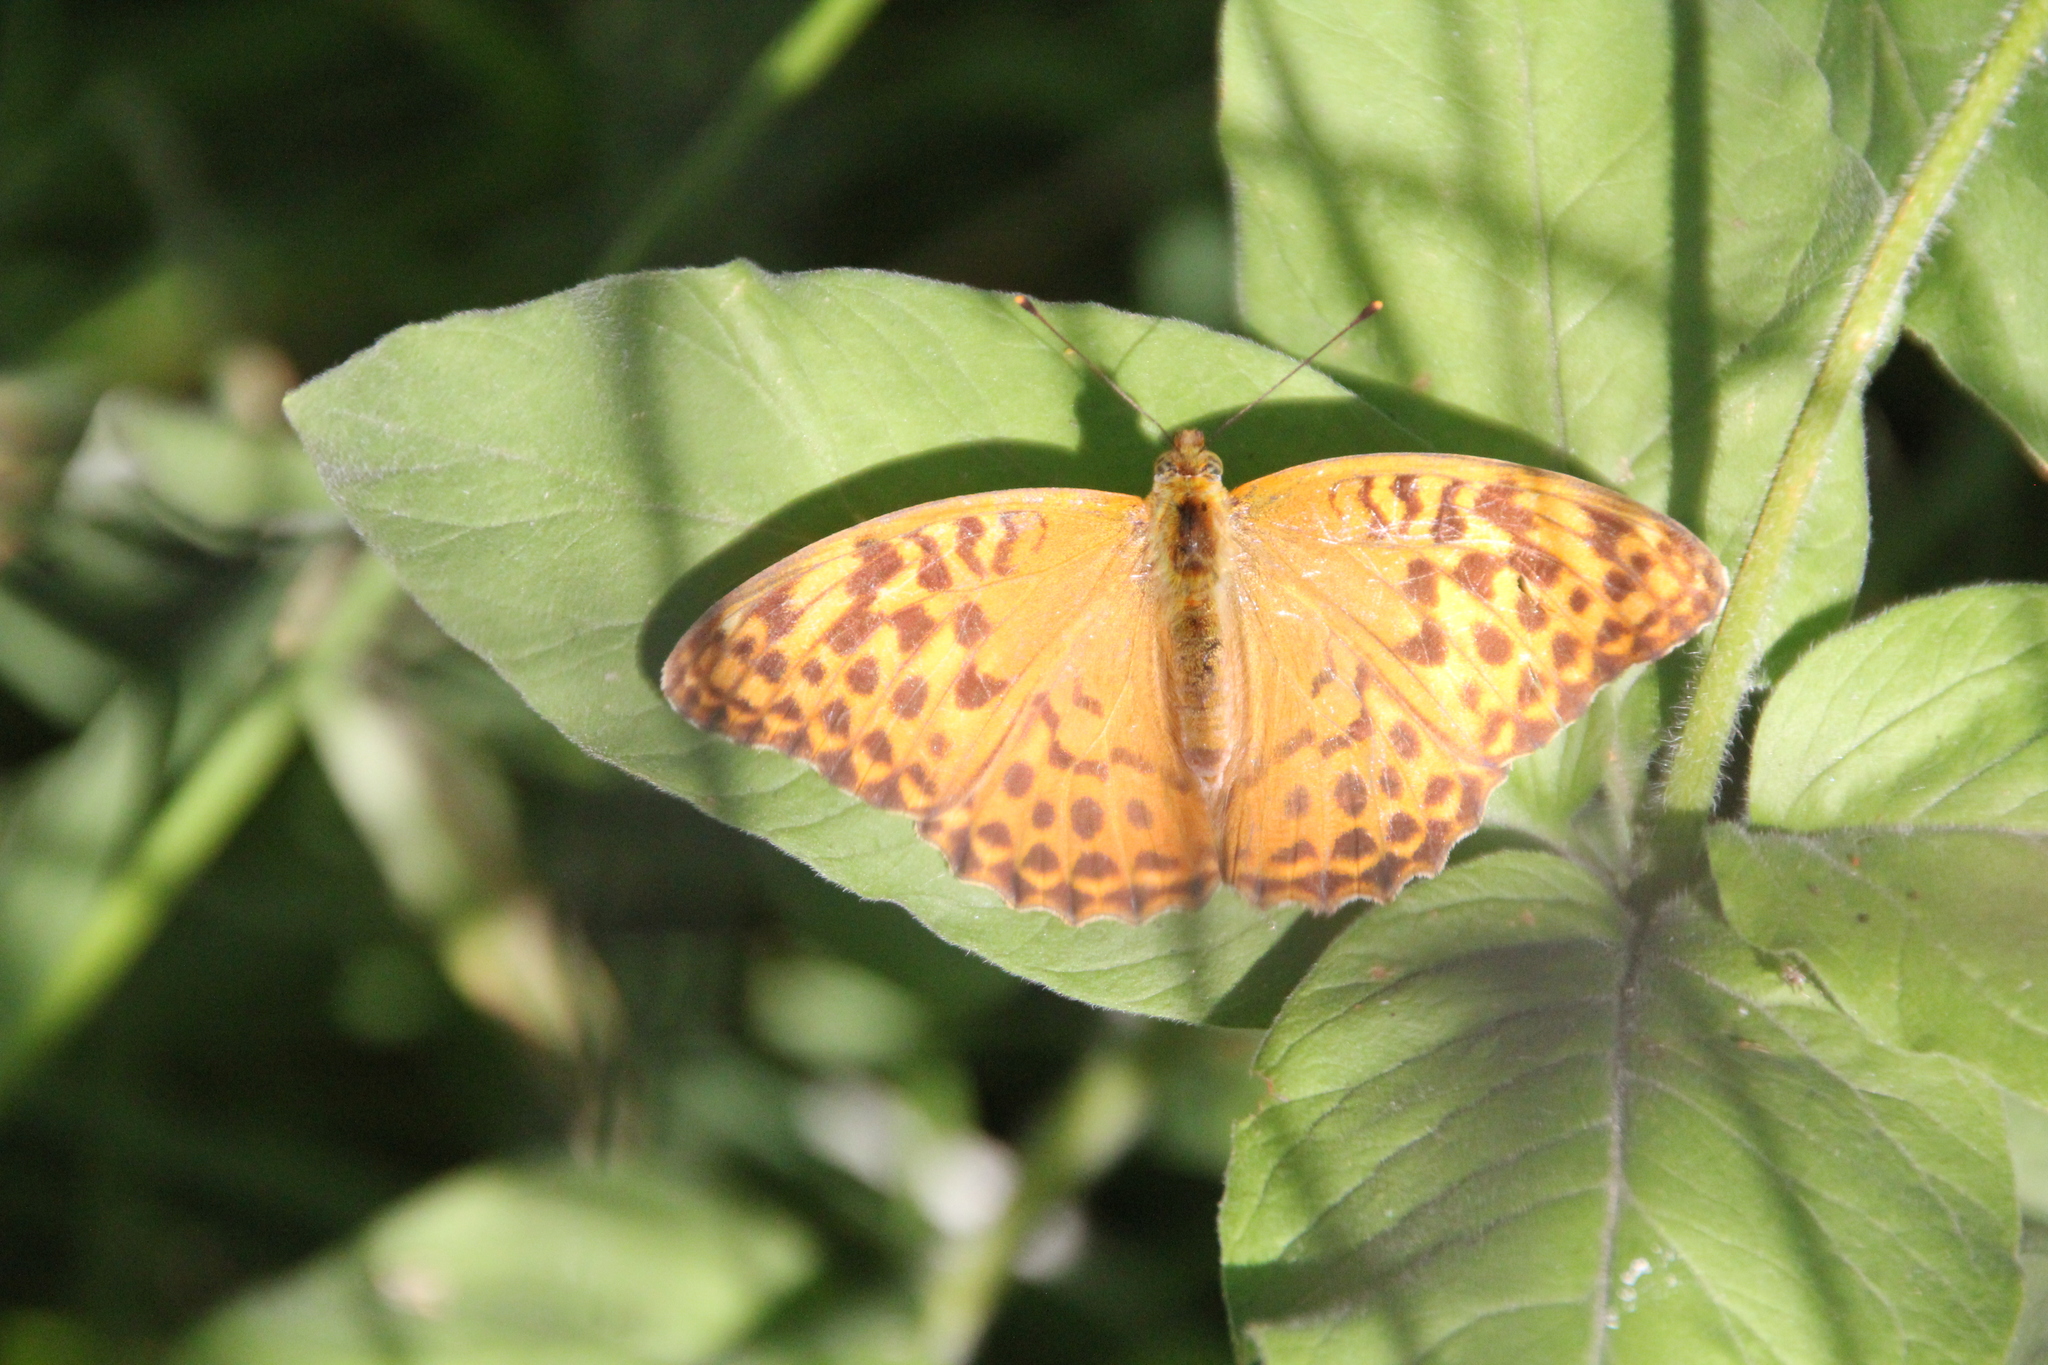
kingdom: Animalia
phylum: Arthropoda
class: Insecta
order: Lepidoptera
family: Nymphalidae
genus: Argynnis
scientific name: Argynnis paphia
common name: Silver-washed fritillary
